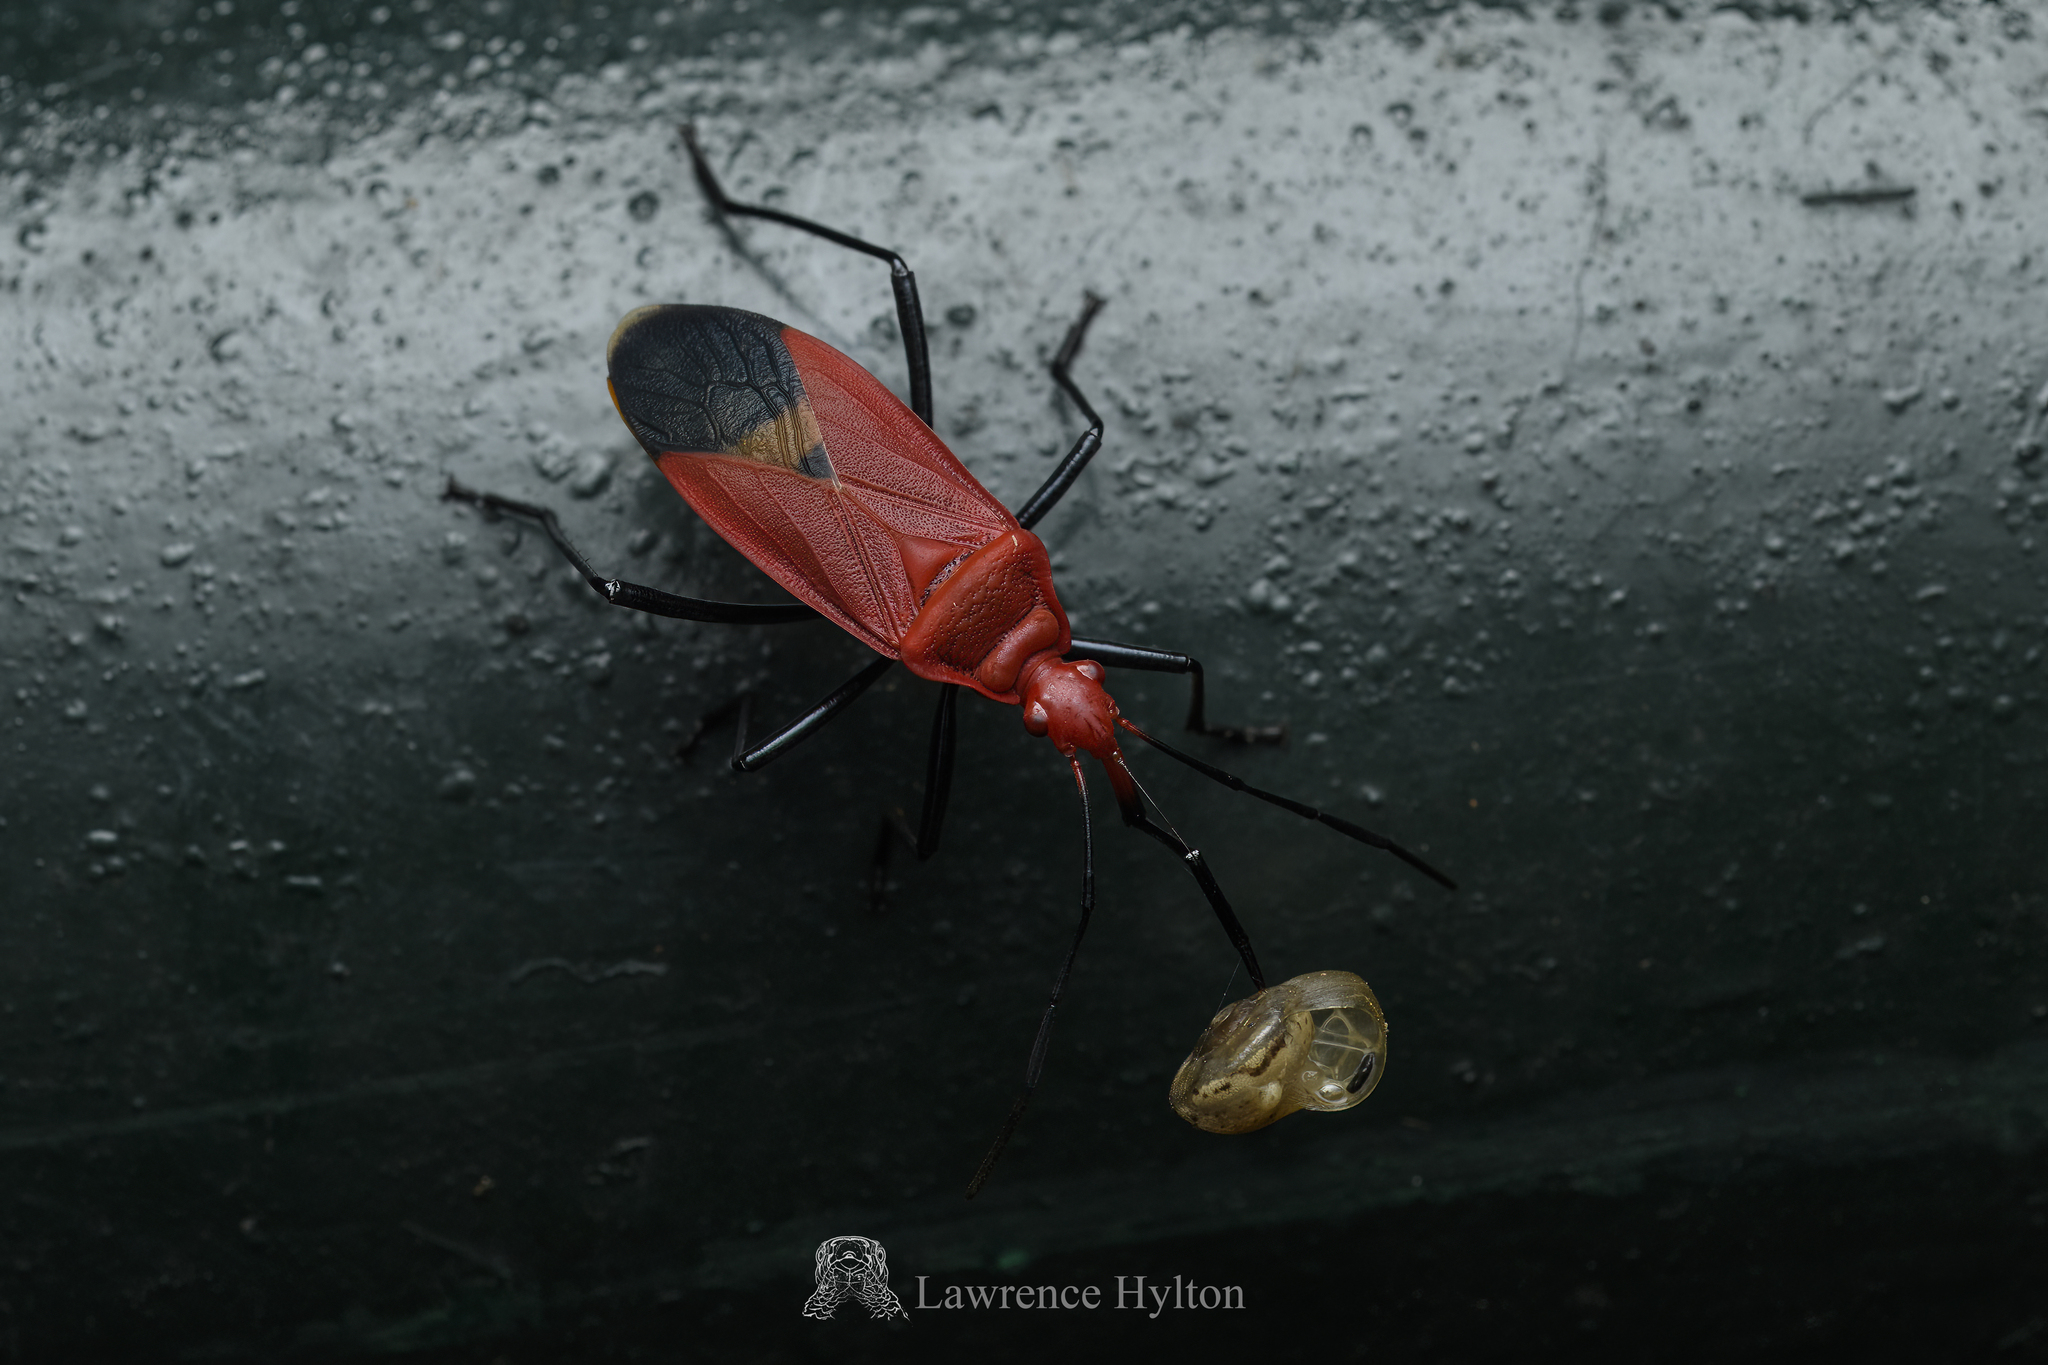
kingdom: Animalia
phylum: Arthropoda
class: Insecta
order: Hemiptera
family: Pyrrhocoridae
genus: Dindymus
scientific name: Dindymus
